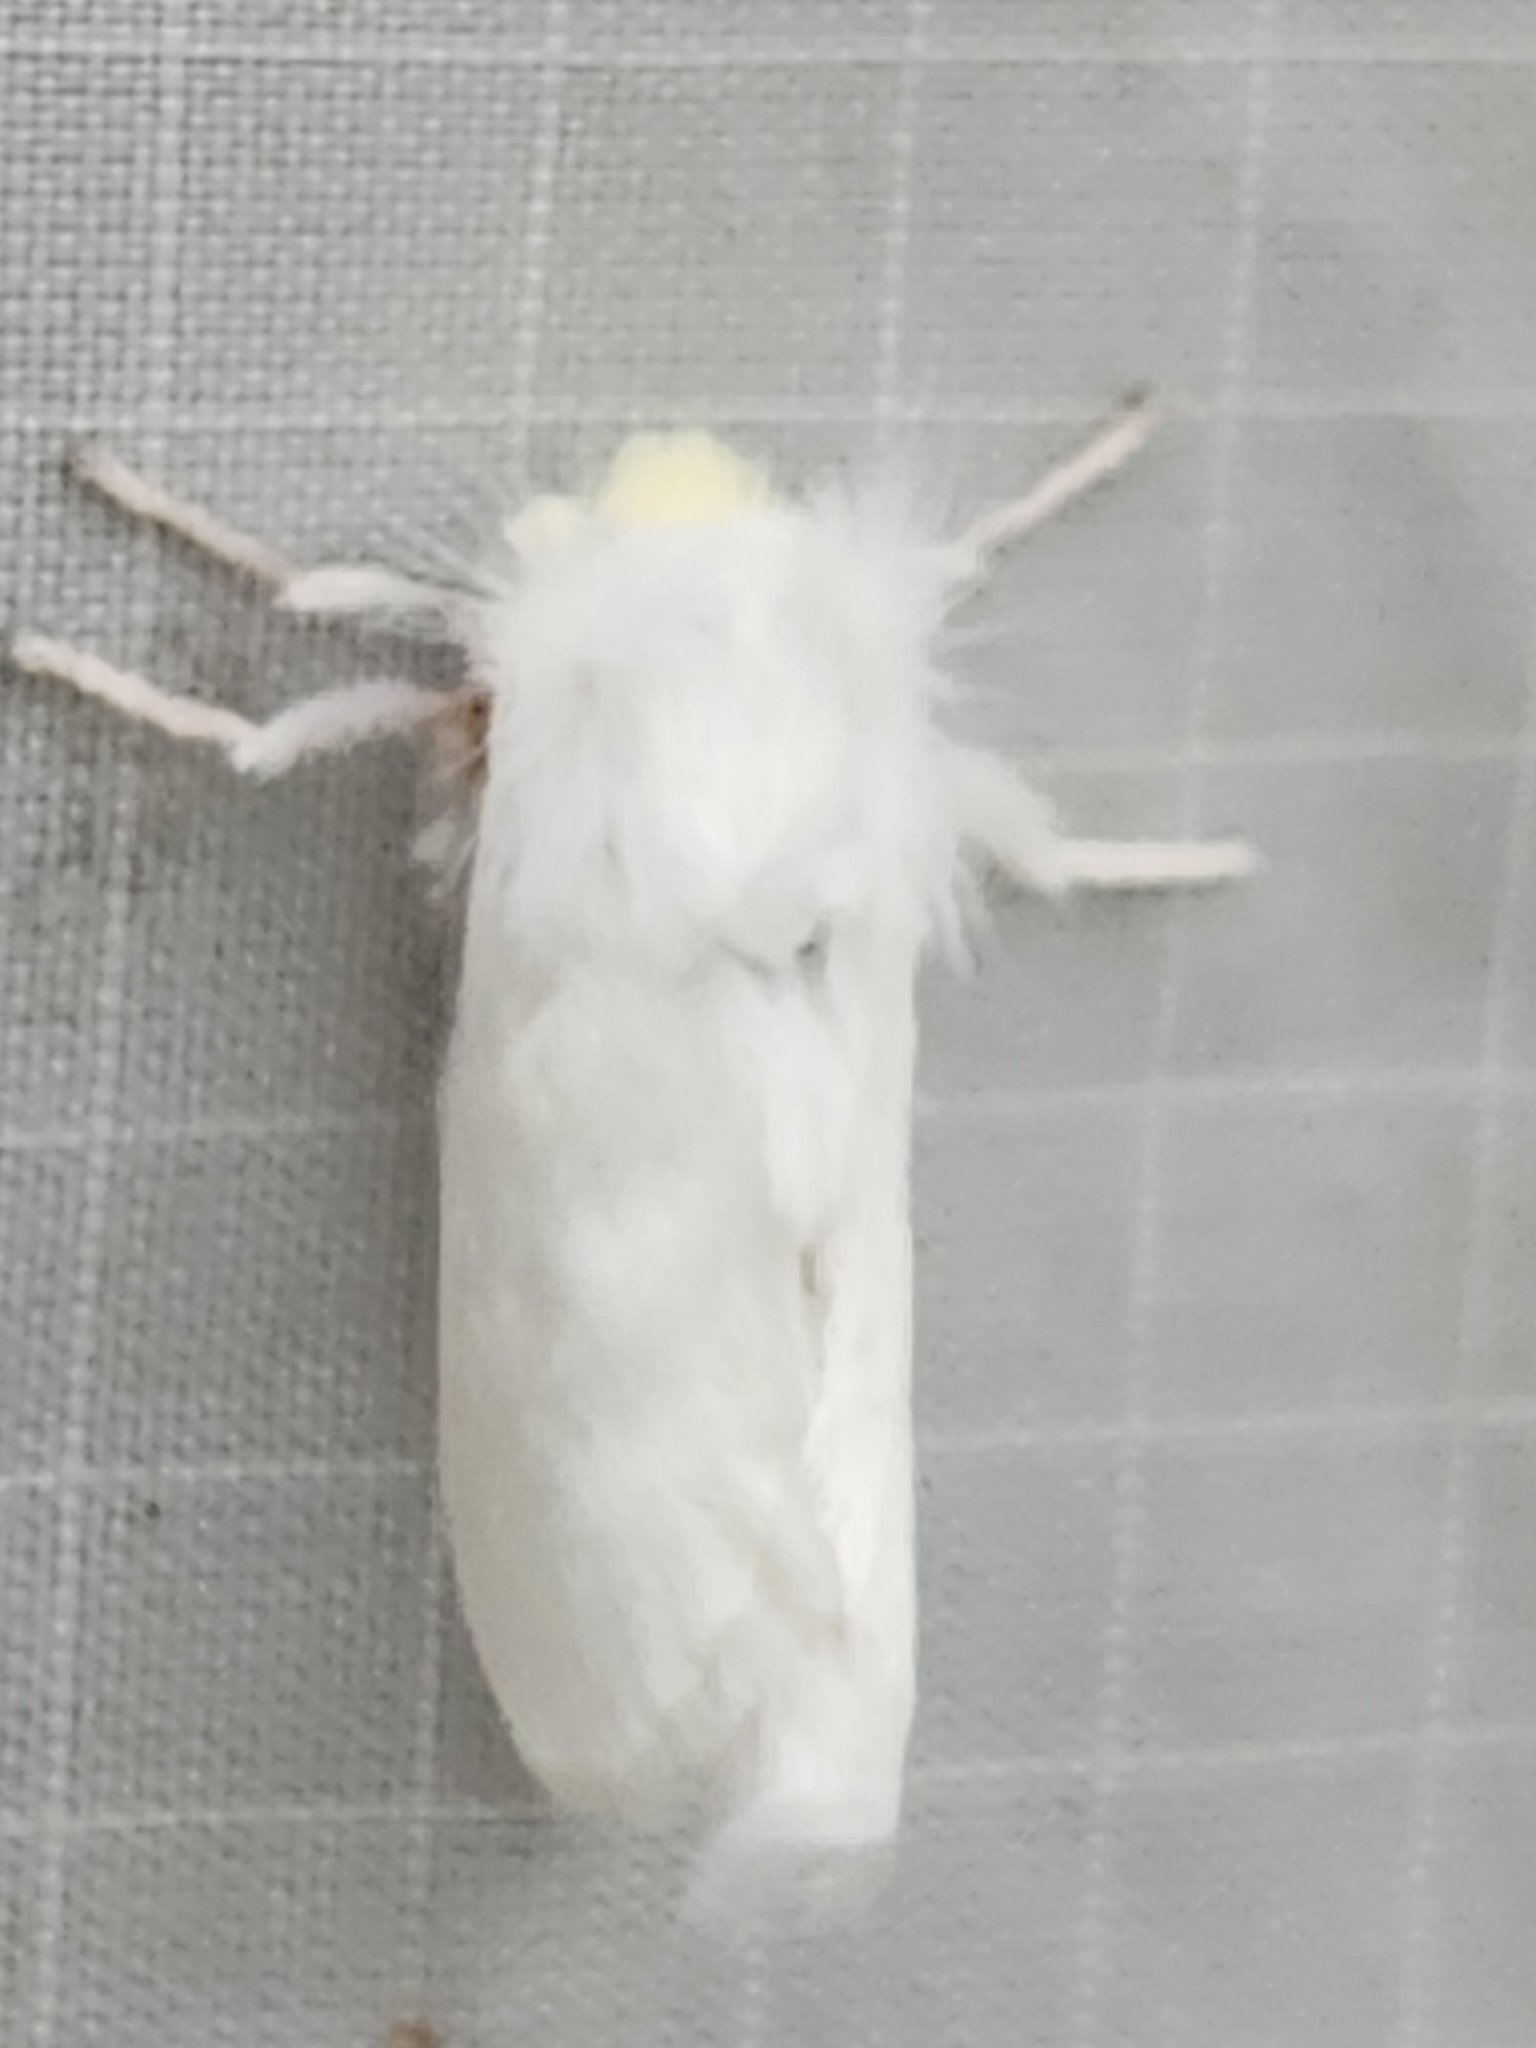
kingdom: Animalia
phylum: Arthropoda
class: Insecta
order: Lepidoptera
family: Megalopygidae
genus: Norape
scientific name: Norape cretata
